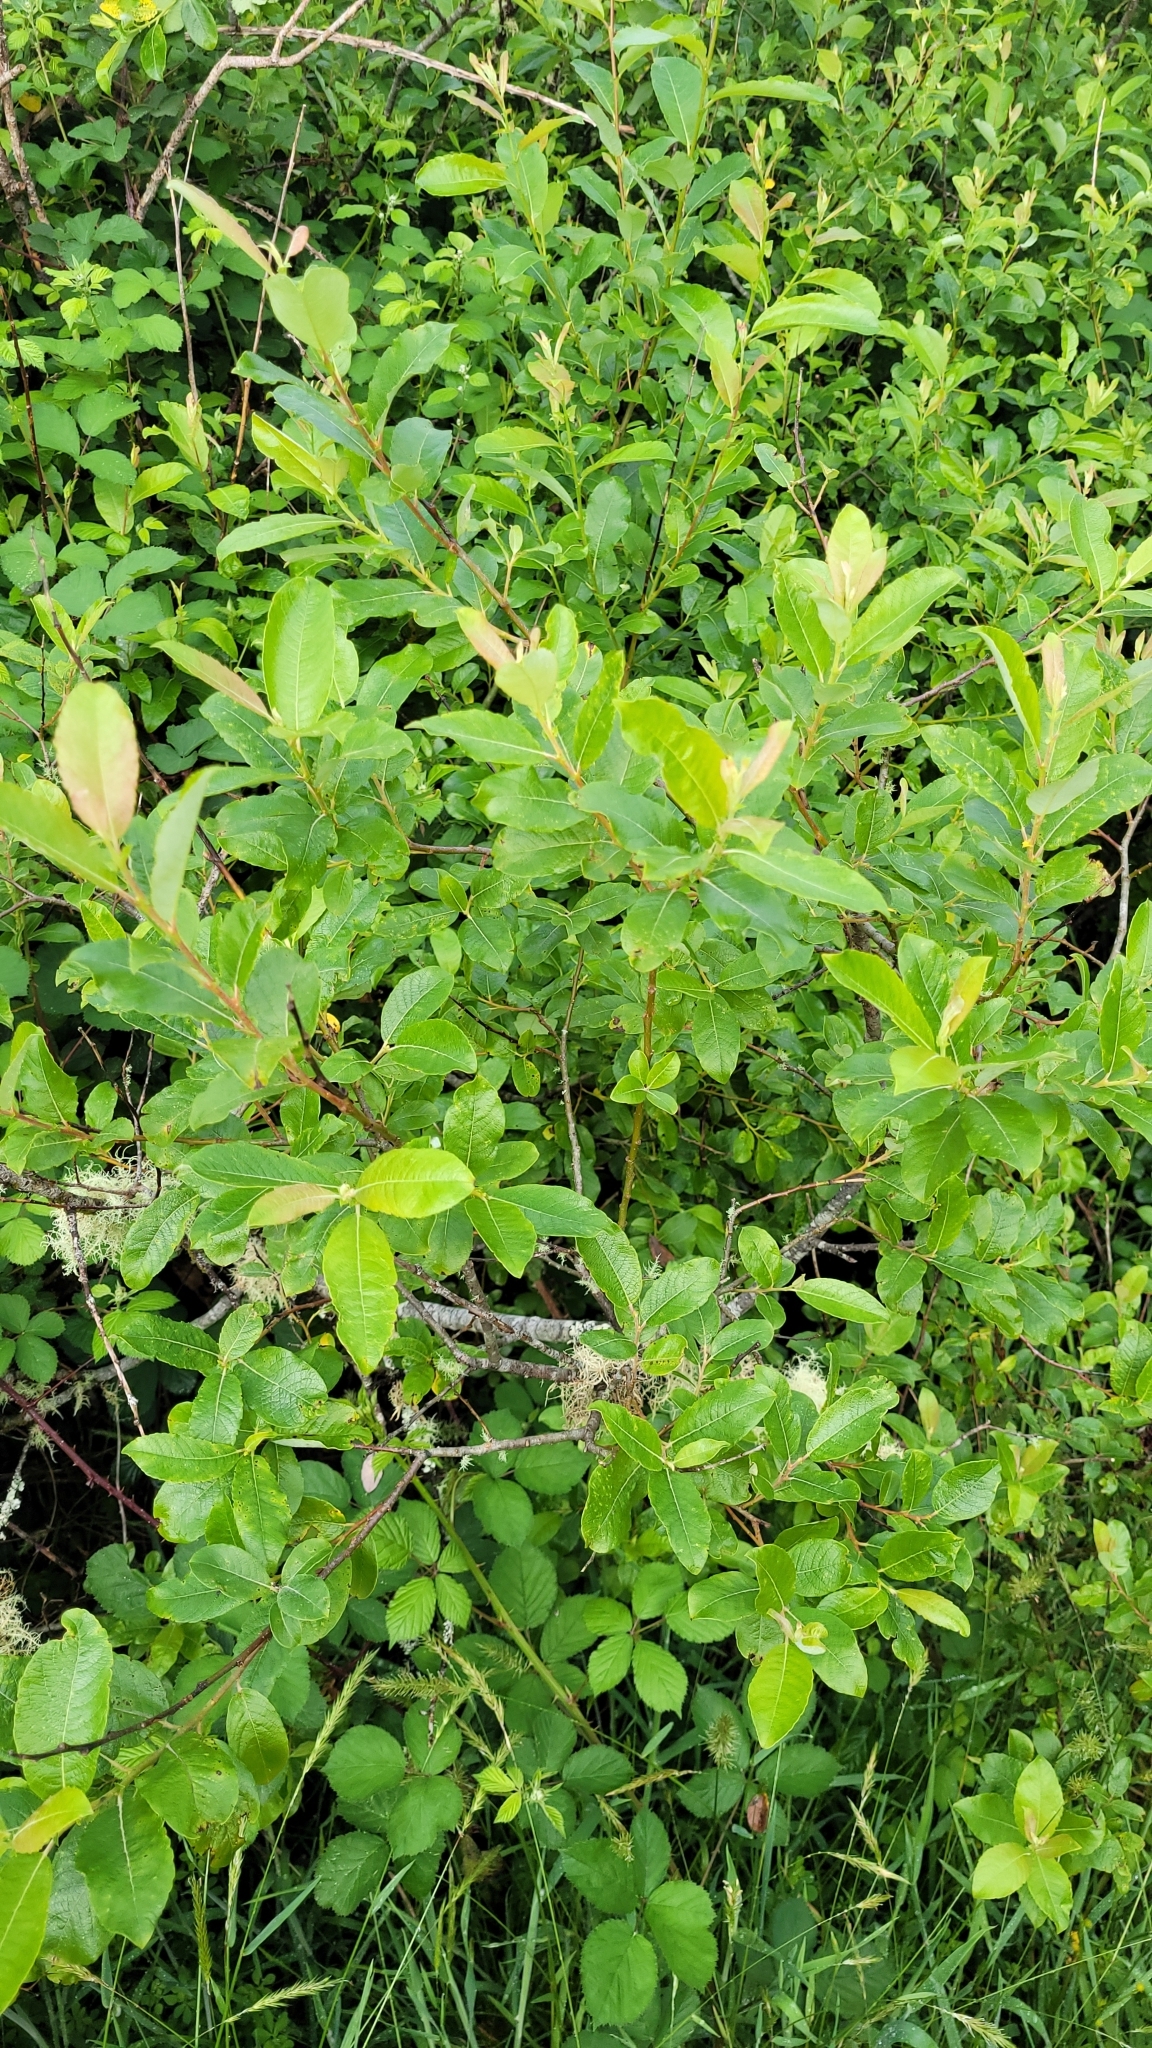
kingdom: Plantae
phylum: Tracheophyta
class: Magnoliopsida
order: Malpighiales
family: Salicaceae
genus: Salix
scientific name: Salix cinerea
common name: Common sallow
